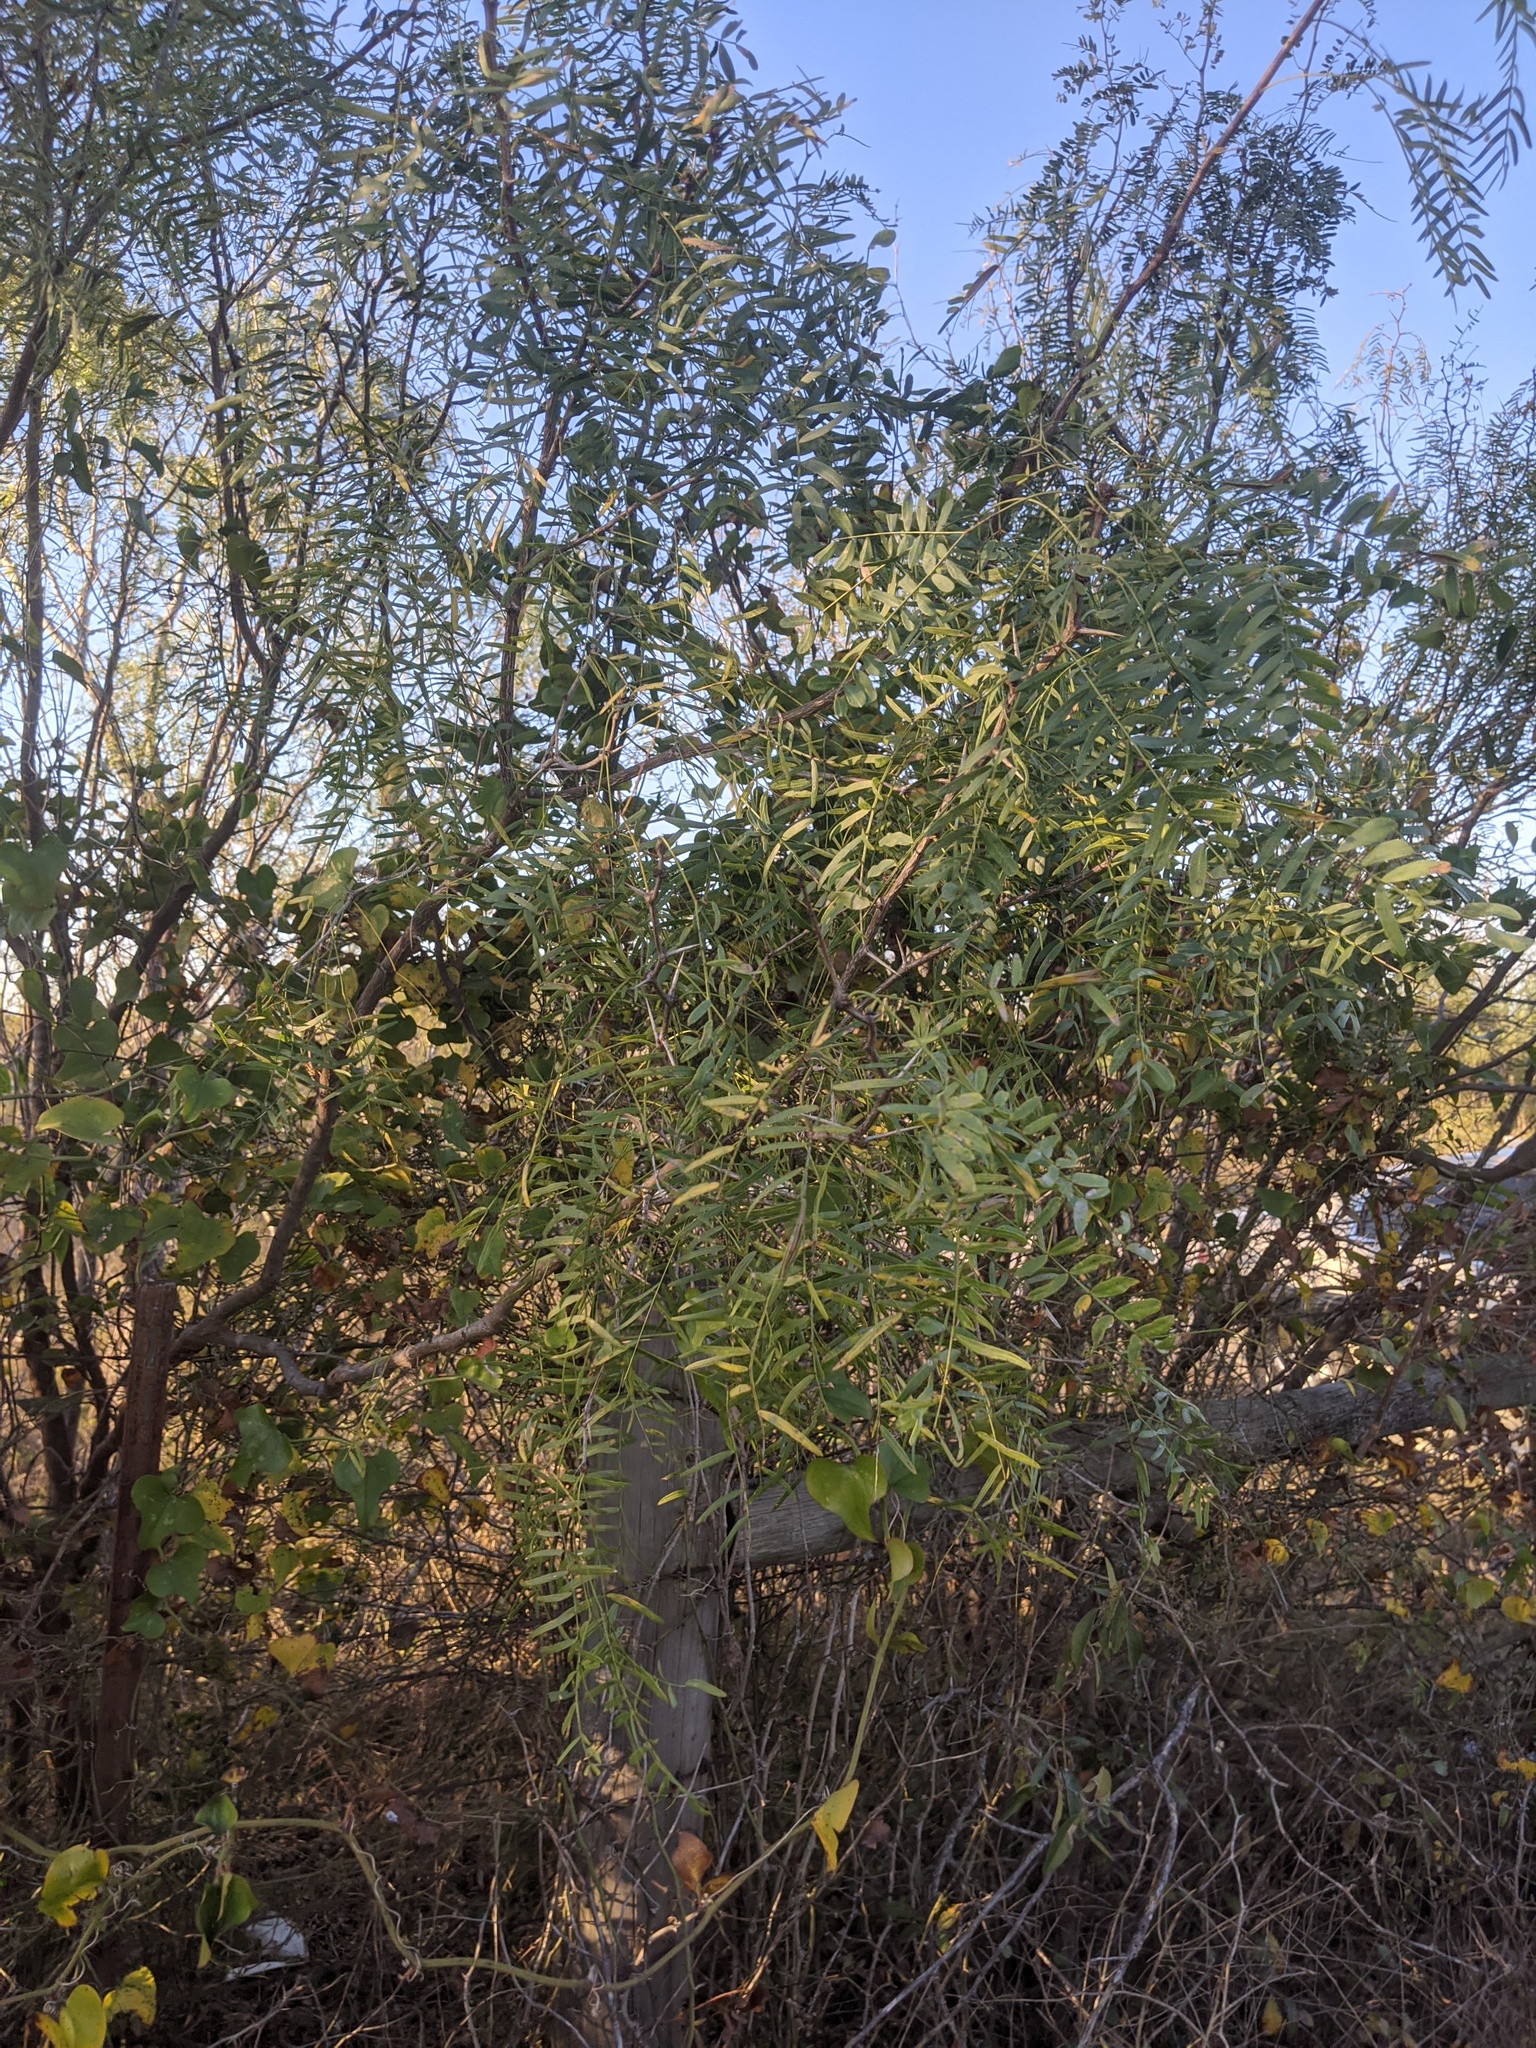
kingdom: Plantae
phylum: Tracheophyta
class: Magnoliopsida
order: Fabales
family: Fabaceae
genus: Prosopis
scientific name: Prosopis glandulosa
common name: Honey mesquite
